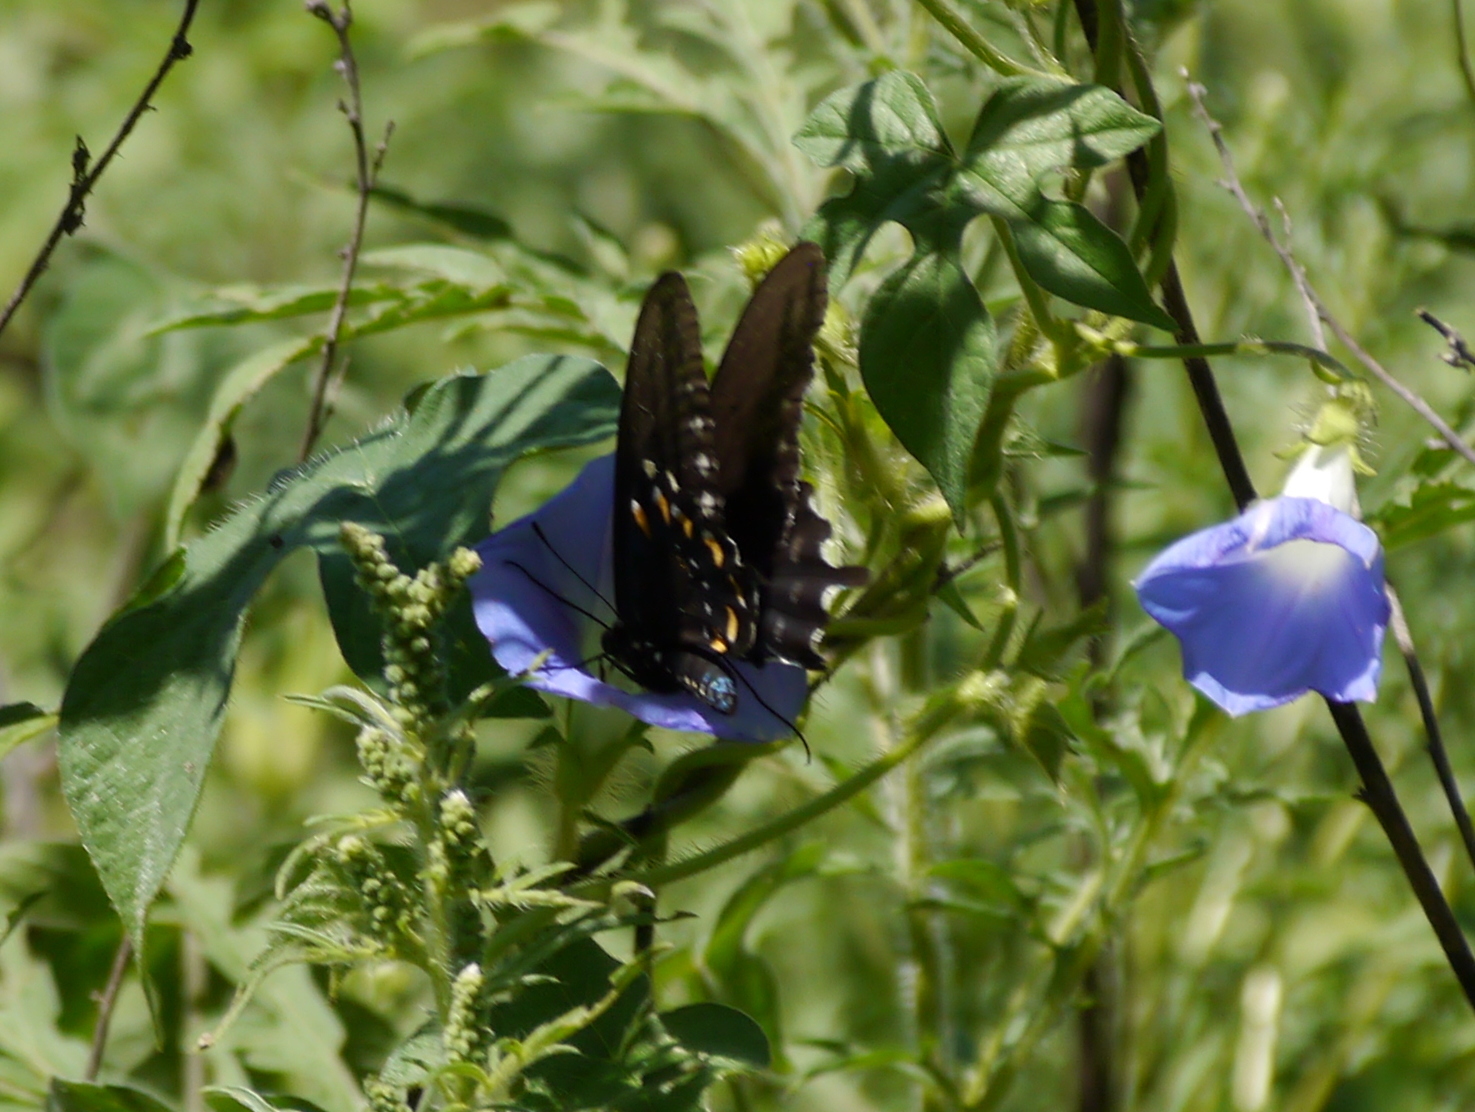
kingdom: Animalia
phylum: Arthropoda
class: Insecta
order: Lepidoptera
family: Papilionidae
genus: Battus
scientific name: Battus philenor
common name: Pipevine swallowtail
